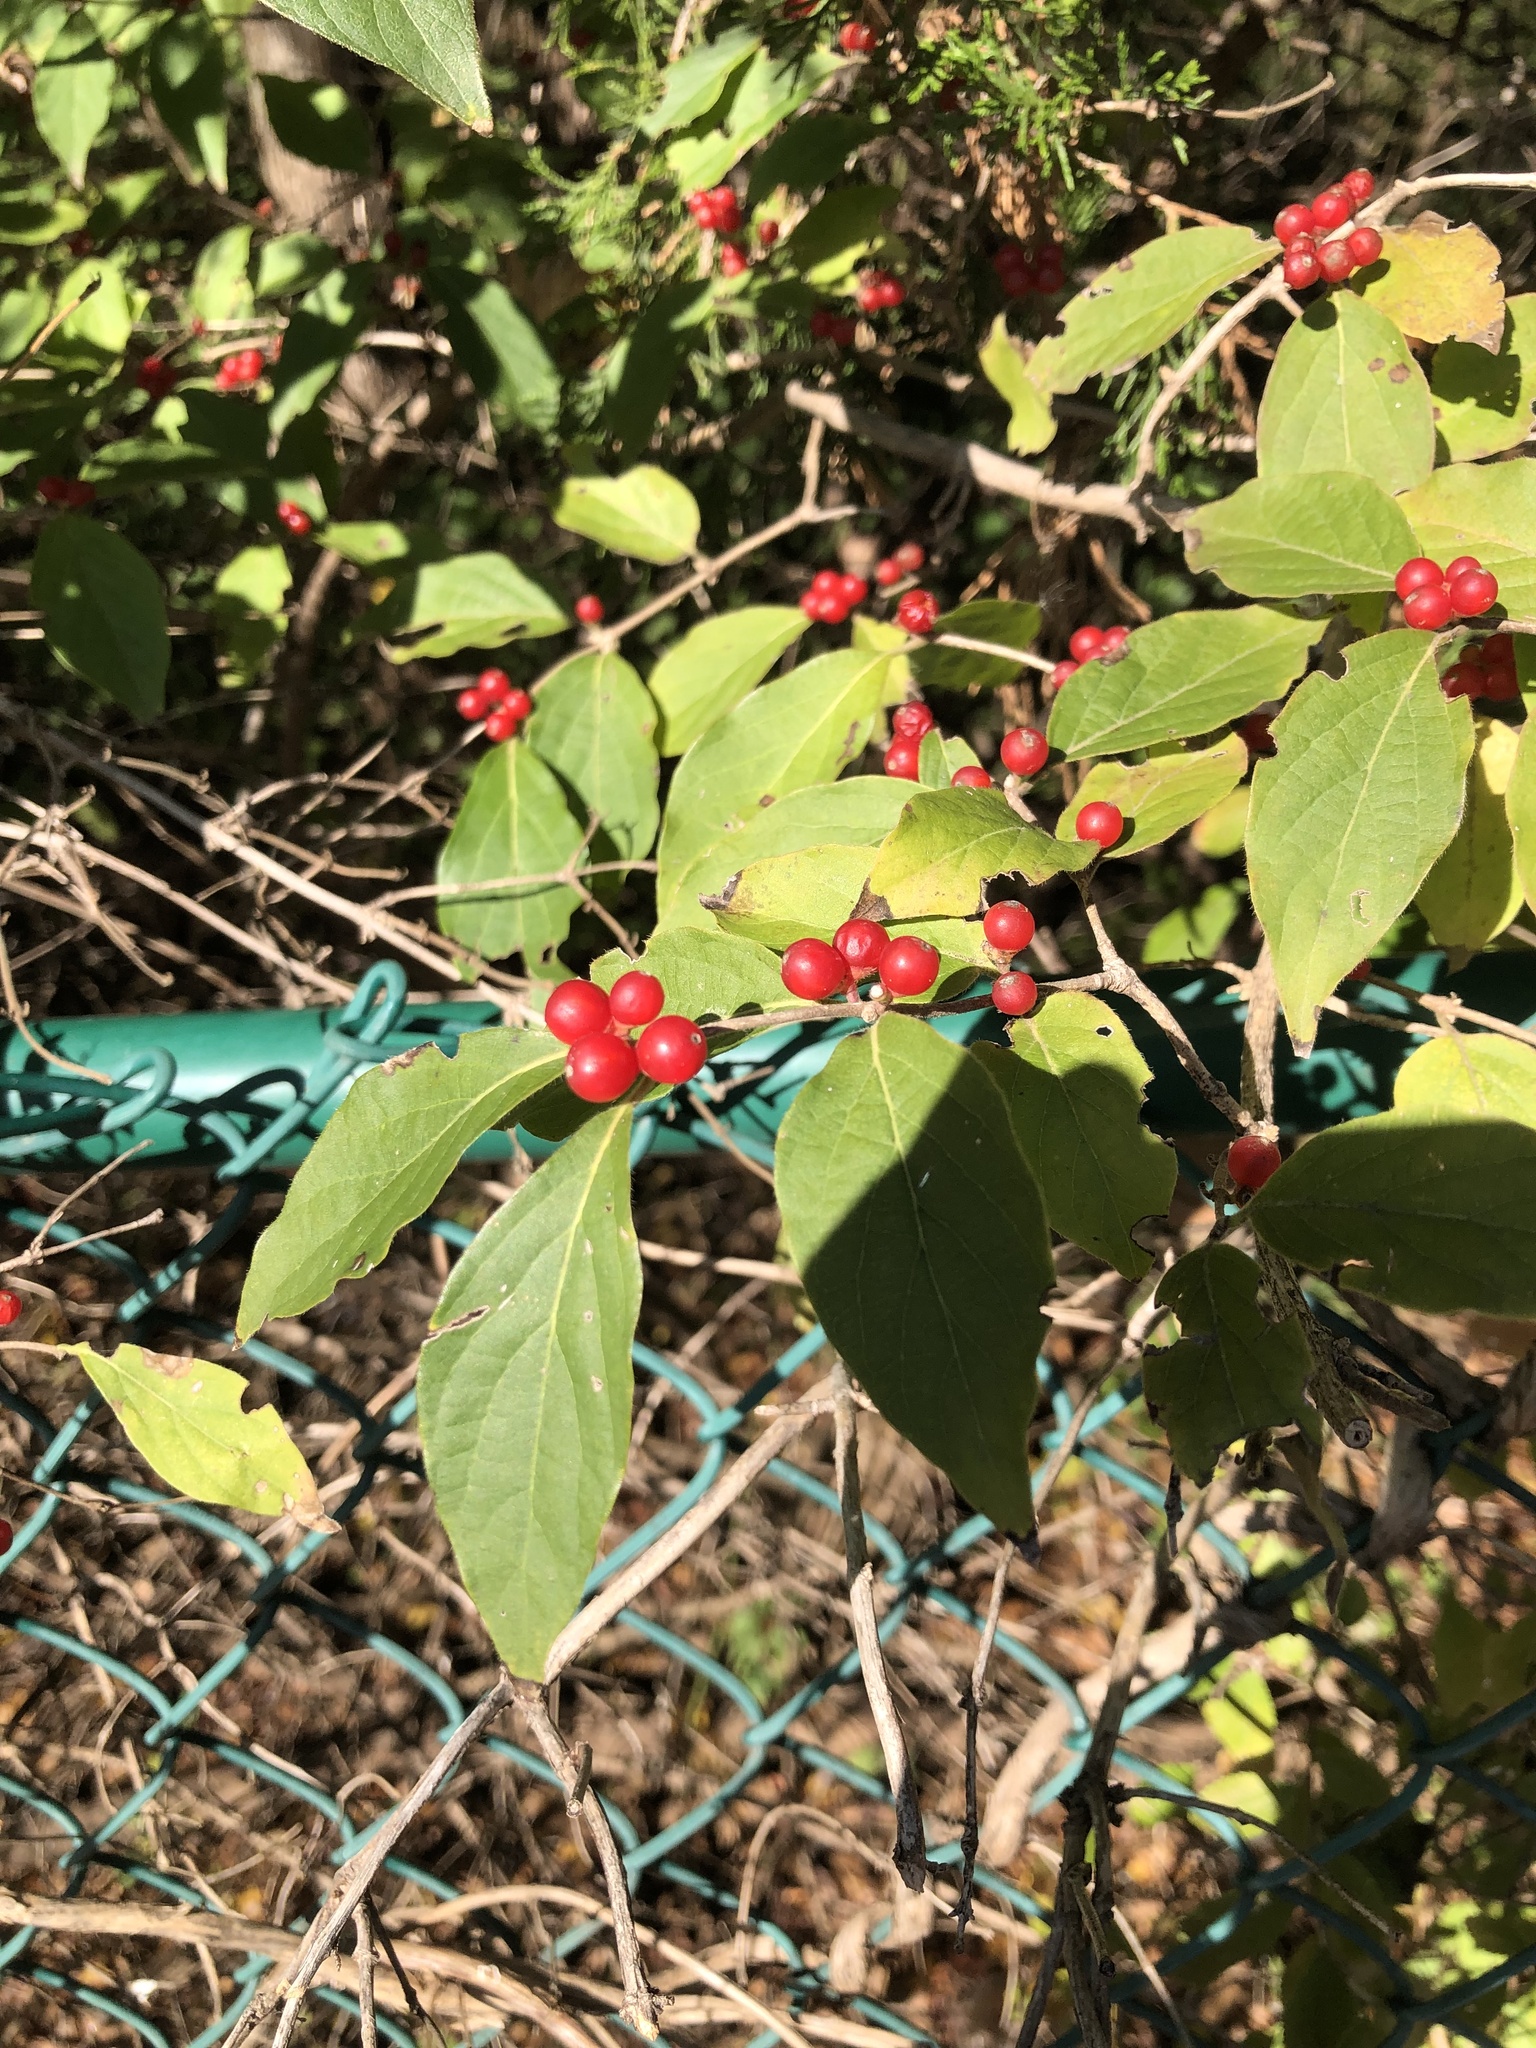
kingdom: Plantae
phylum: Tracheophyta
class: Magnoliopsida
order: Dipsacales
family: Caprifoliaceae
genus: Lonicera
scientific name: Lonicera maackii
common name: Amur honeysuckle
